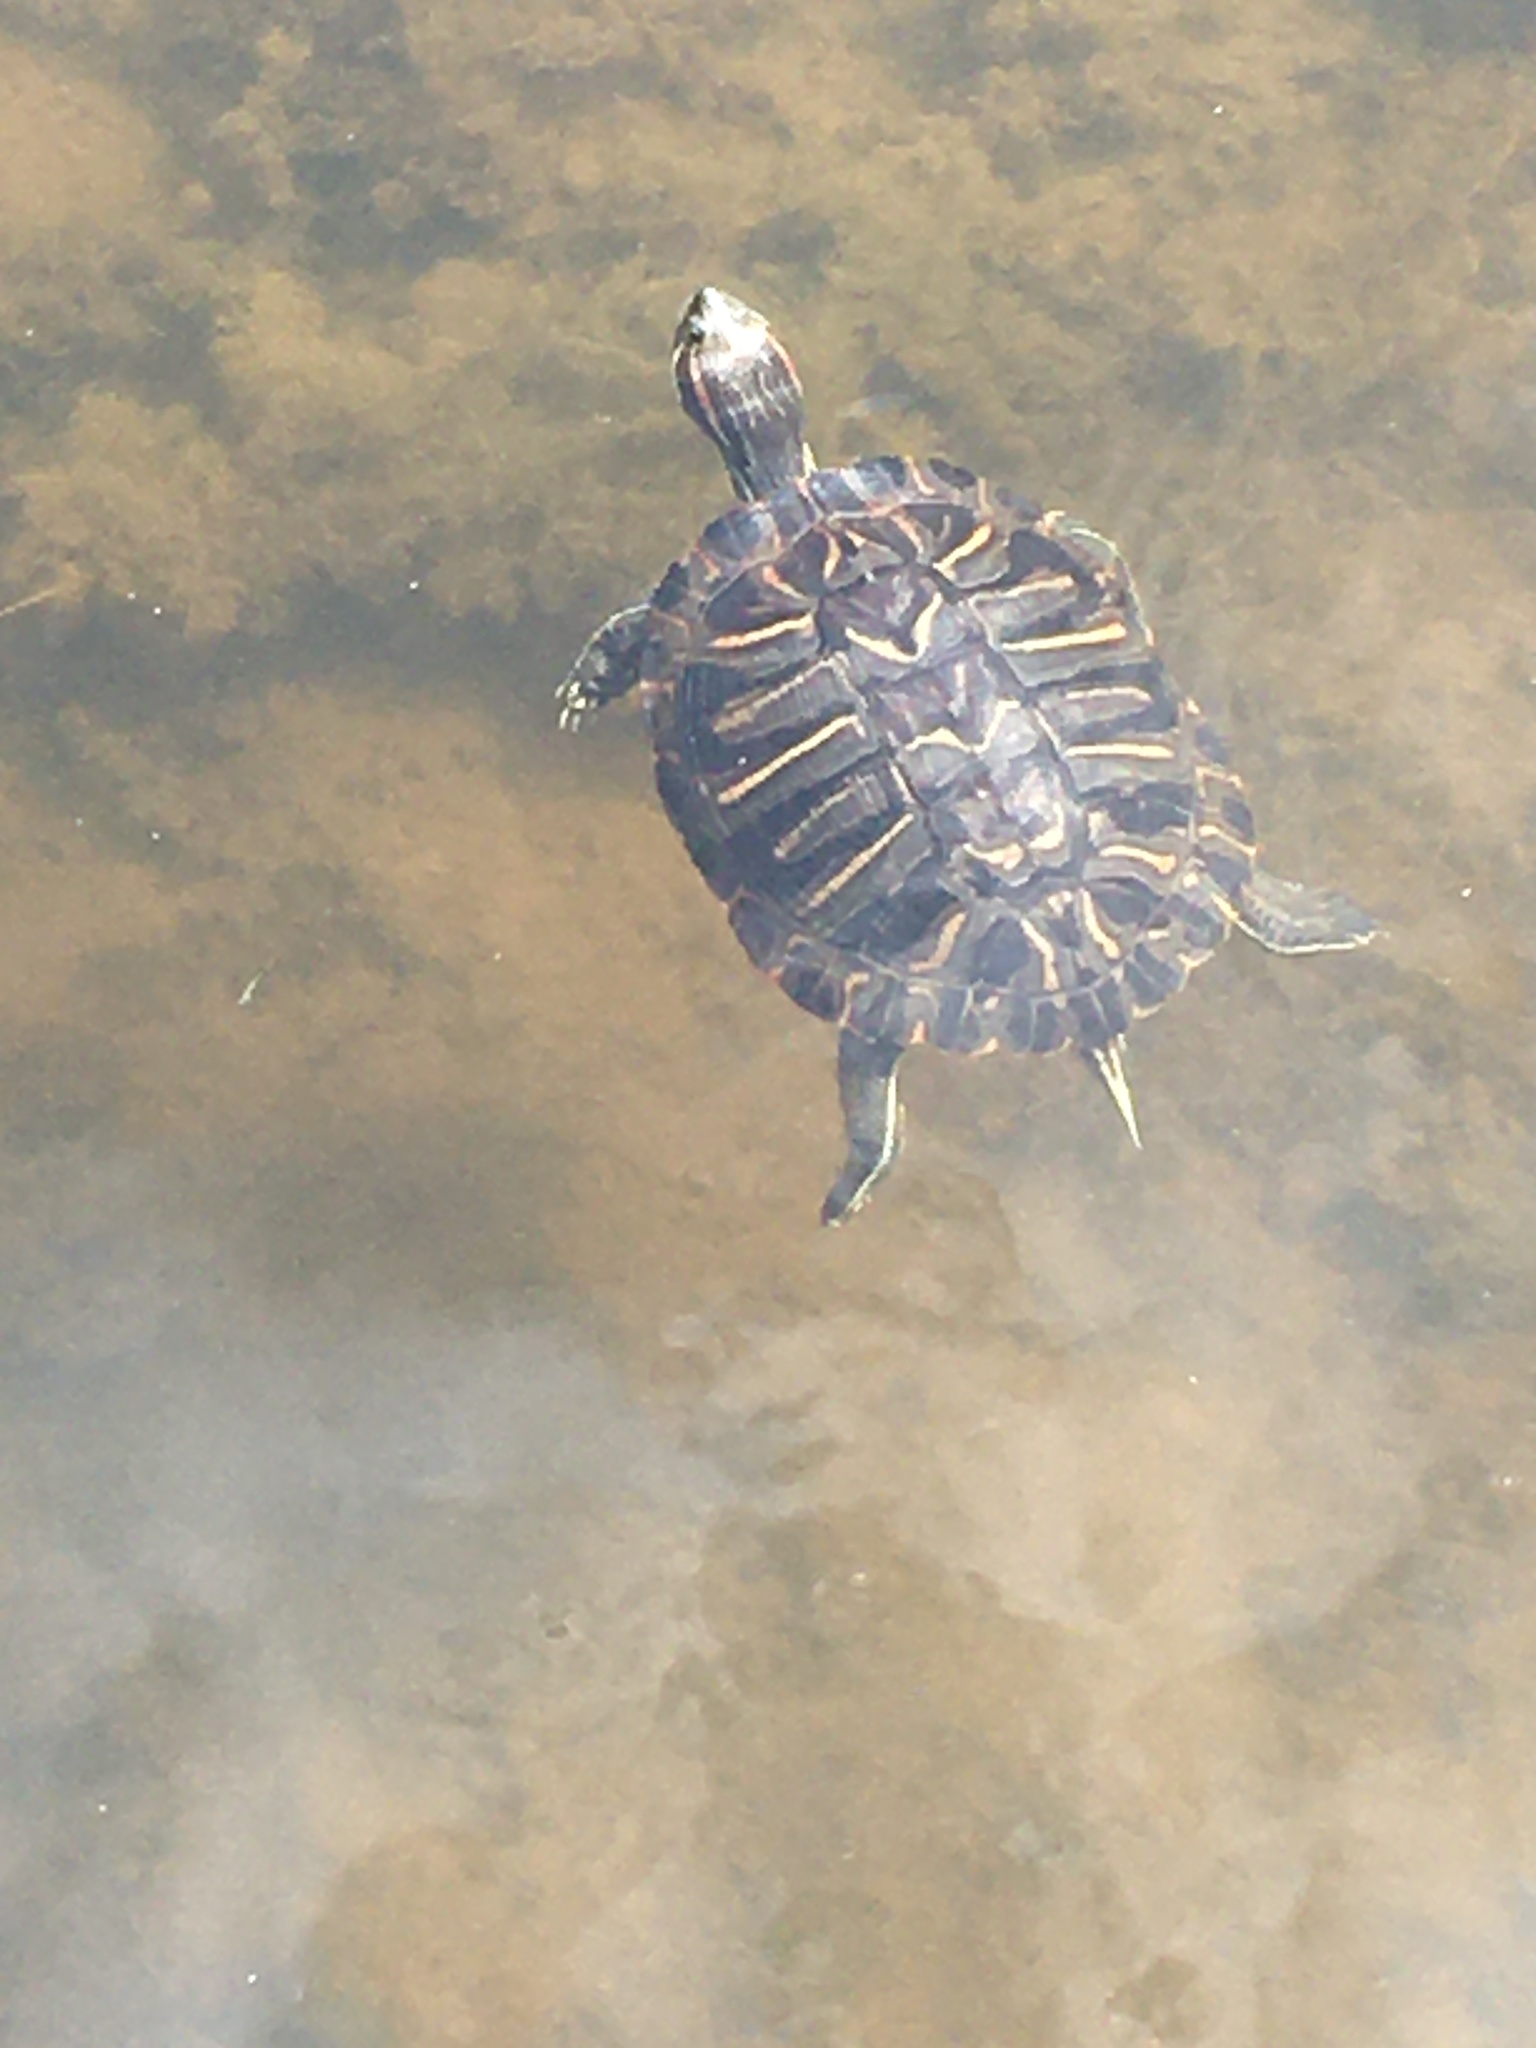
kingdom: Animalia
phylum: Chordata
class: Testudines
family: Emydidae
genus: Trachemys
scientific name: Trachemys scripta
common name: Slider
